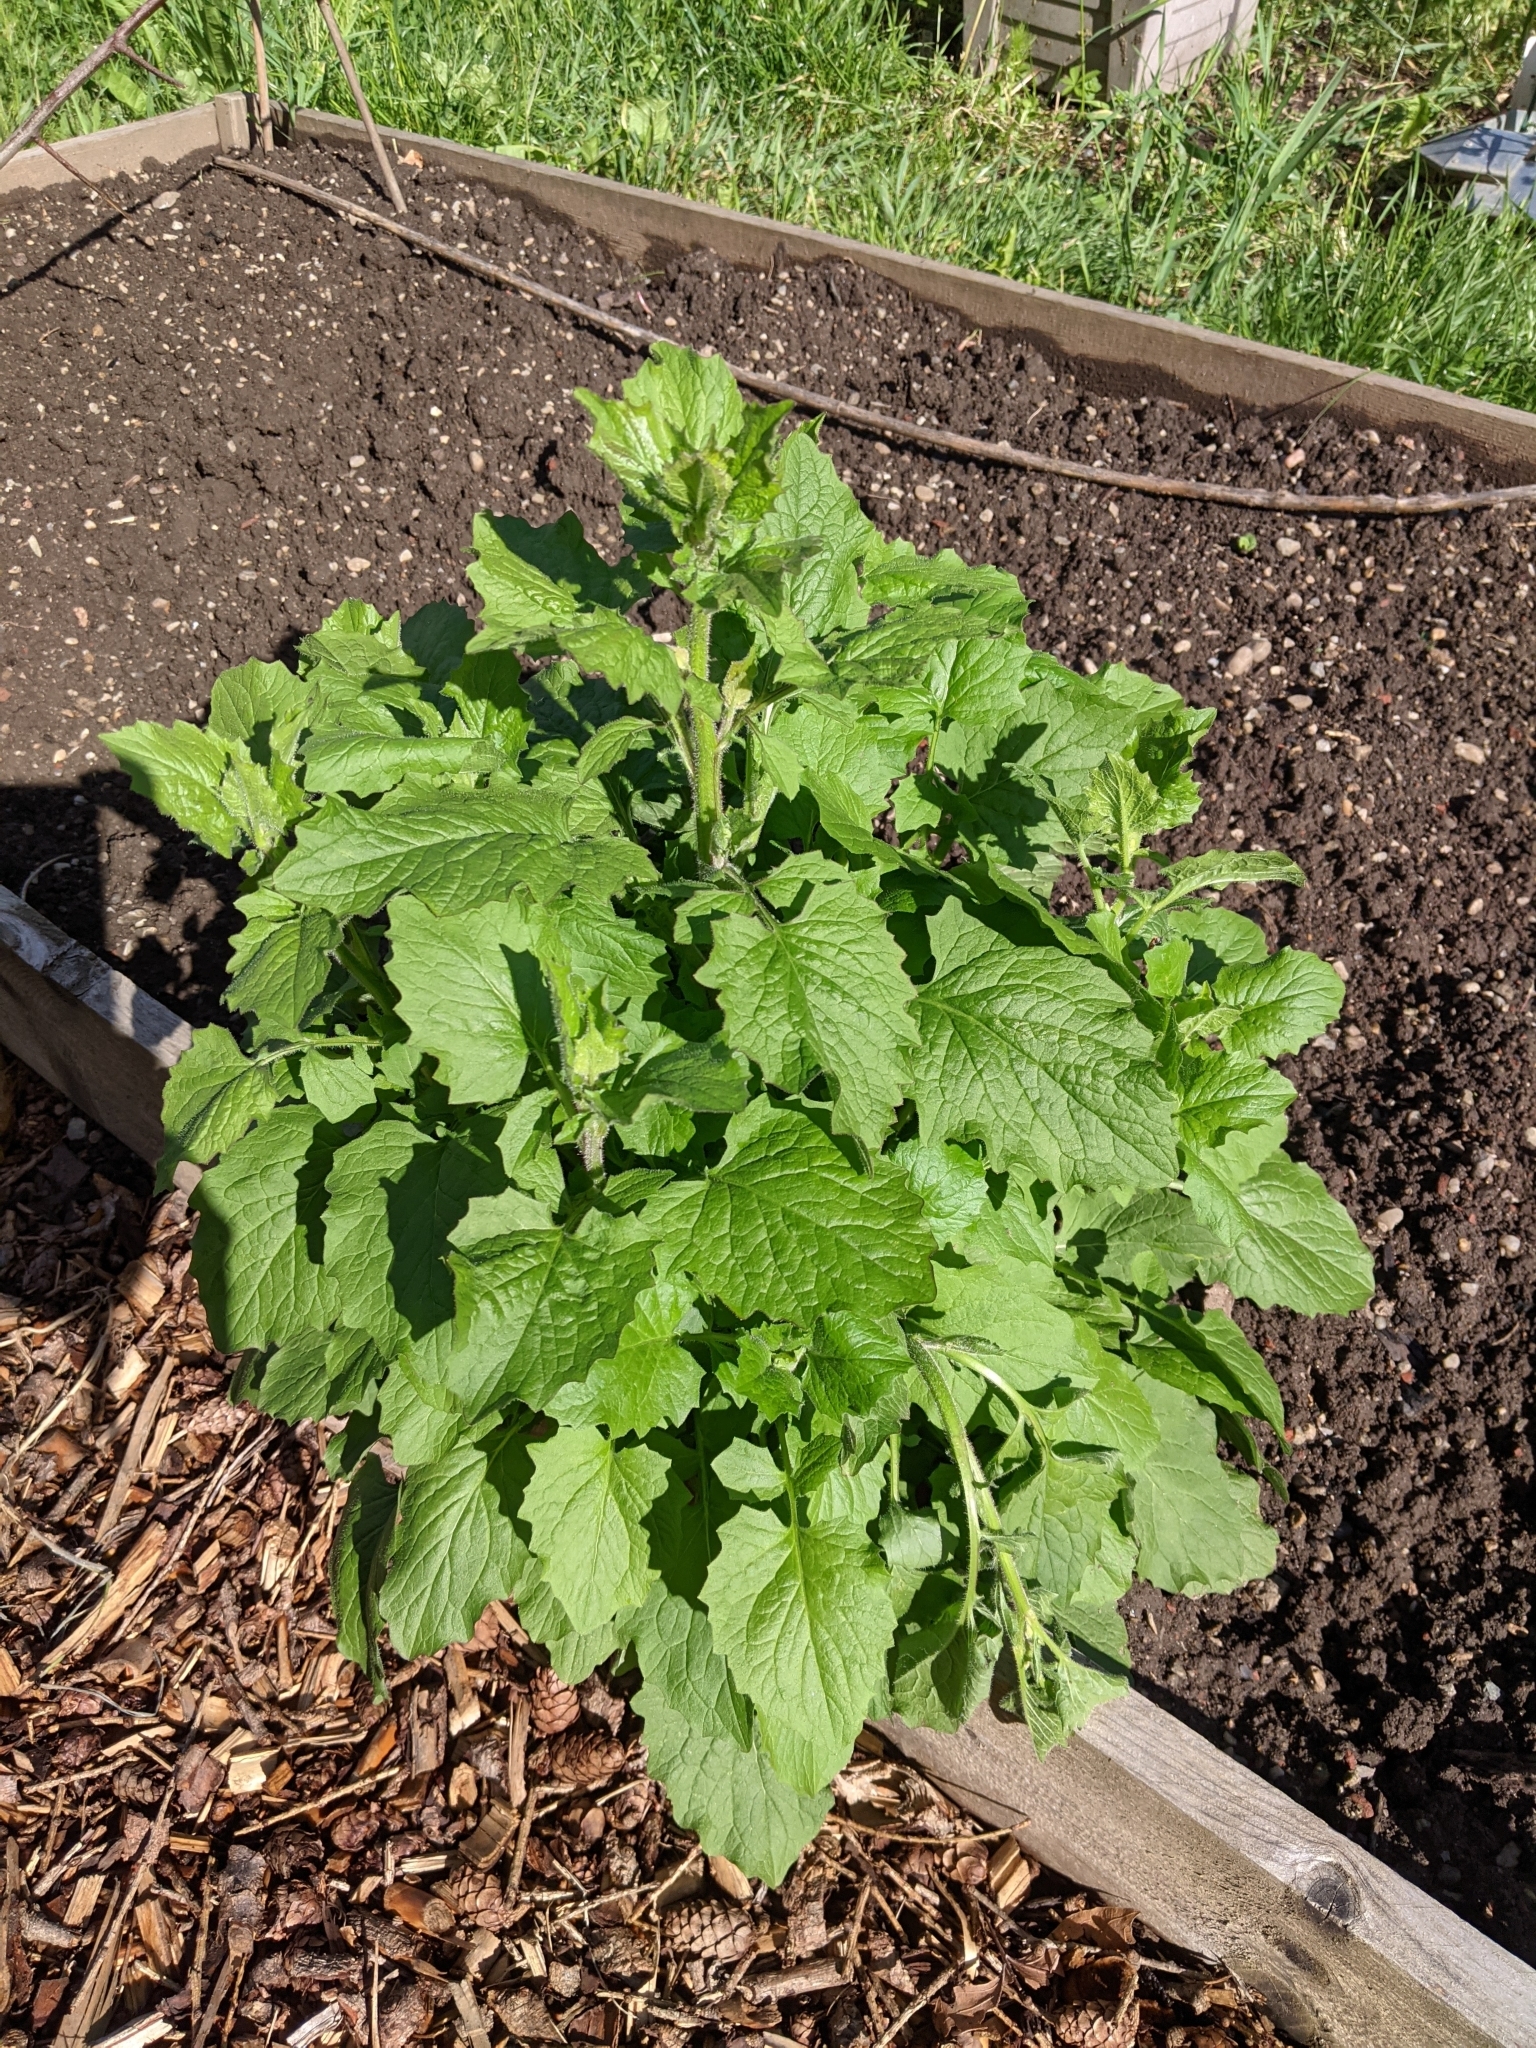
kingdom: Plantae
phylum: Tracheophyta
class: Magnoliopsida
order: Asterales
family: Asteraceae
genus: Lapsana
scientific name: Lapsana communis
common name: Nipplewort
